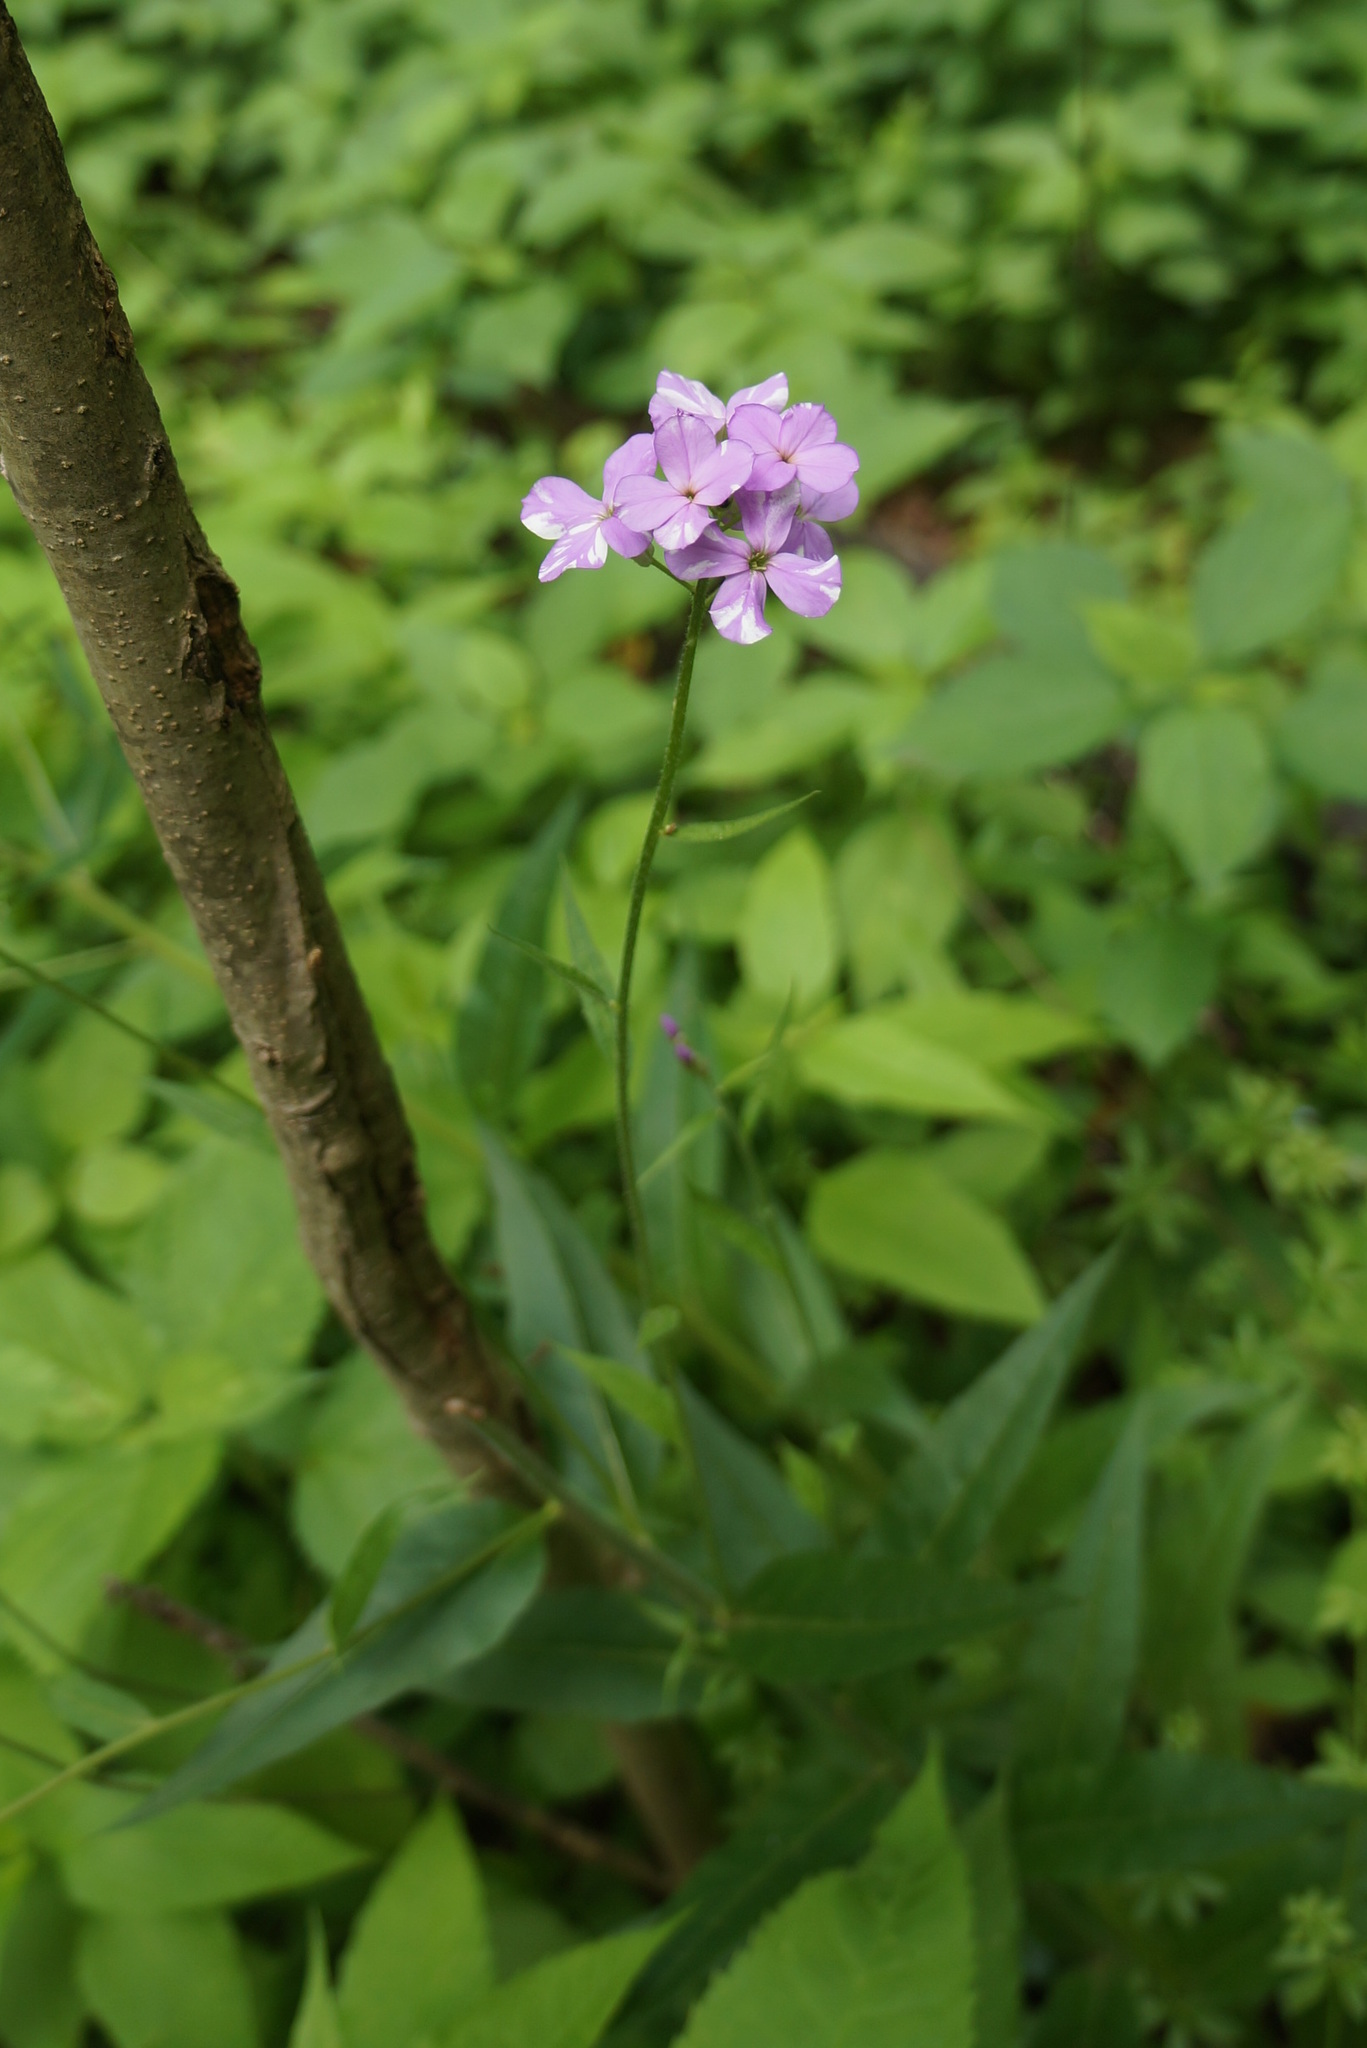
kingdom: Plantae
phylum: Tracheophyta
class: Magnoliopsida
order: Brassicales
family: Brassicaceae
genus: Hesperis
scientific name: Hesperis matronalis
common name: Dame's-violet
